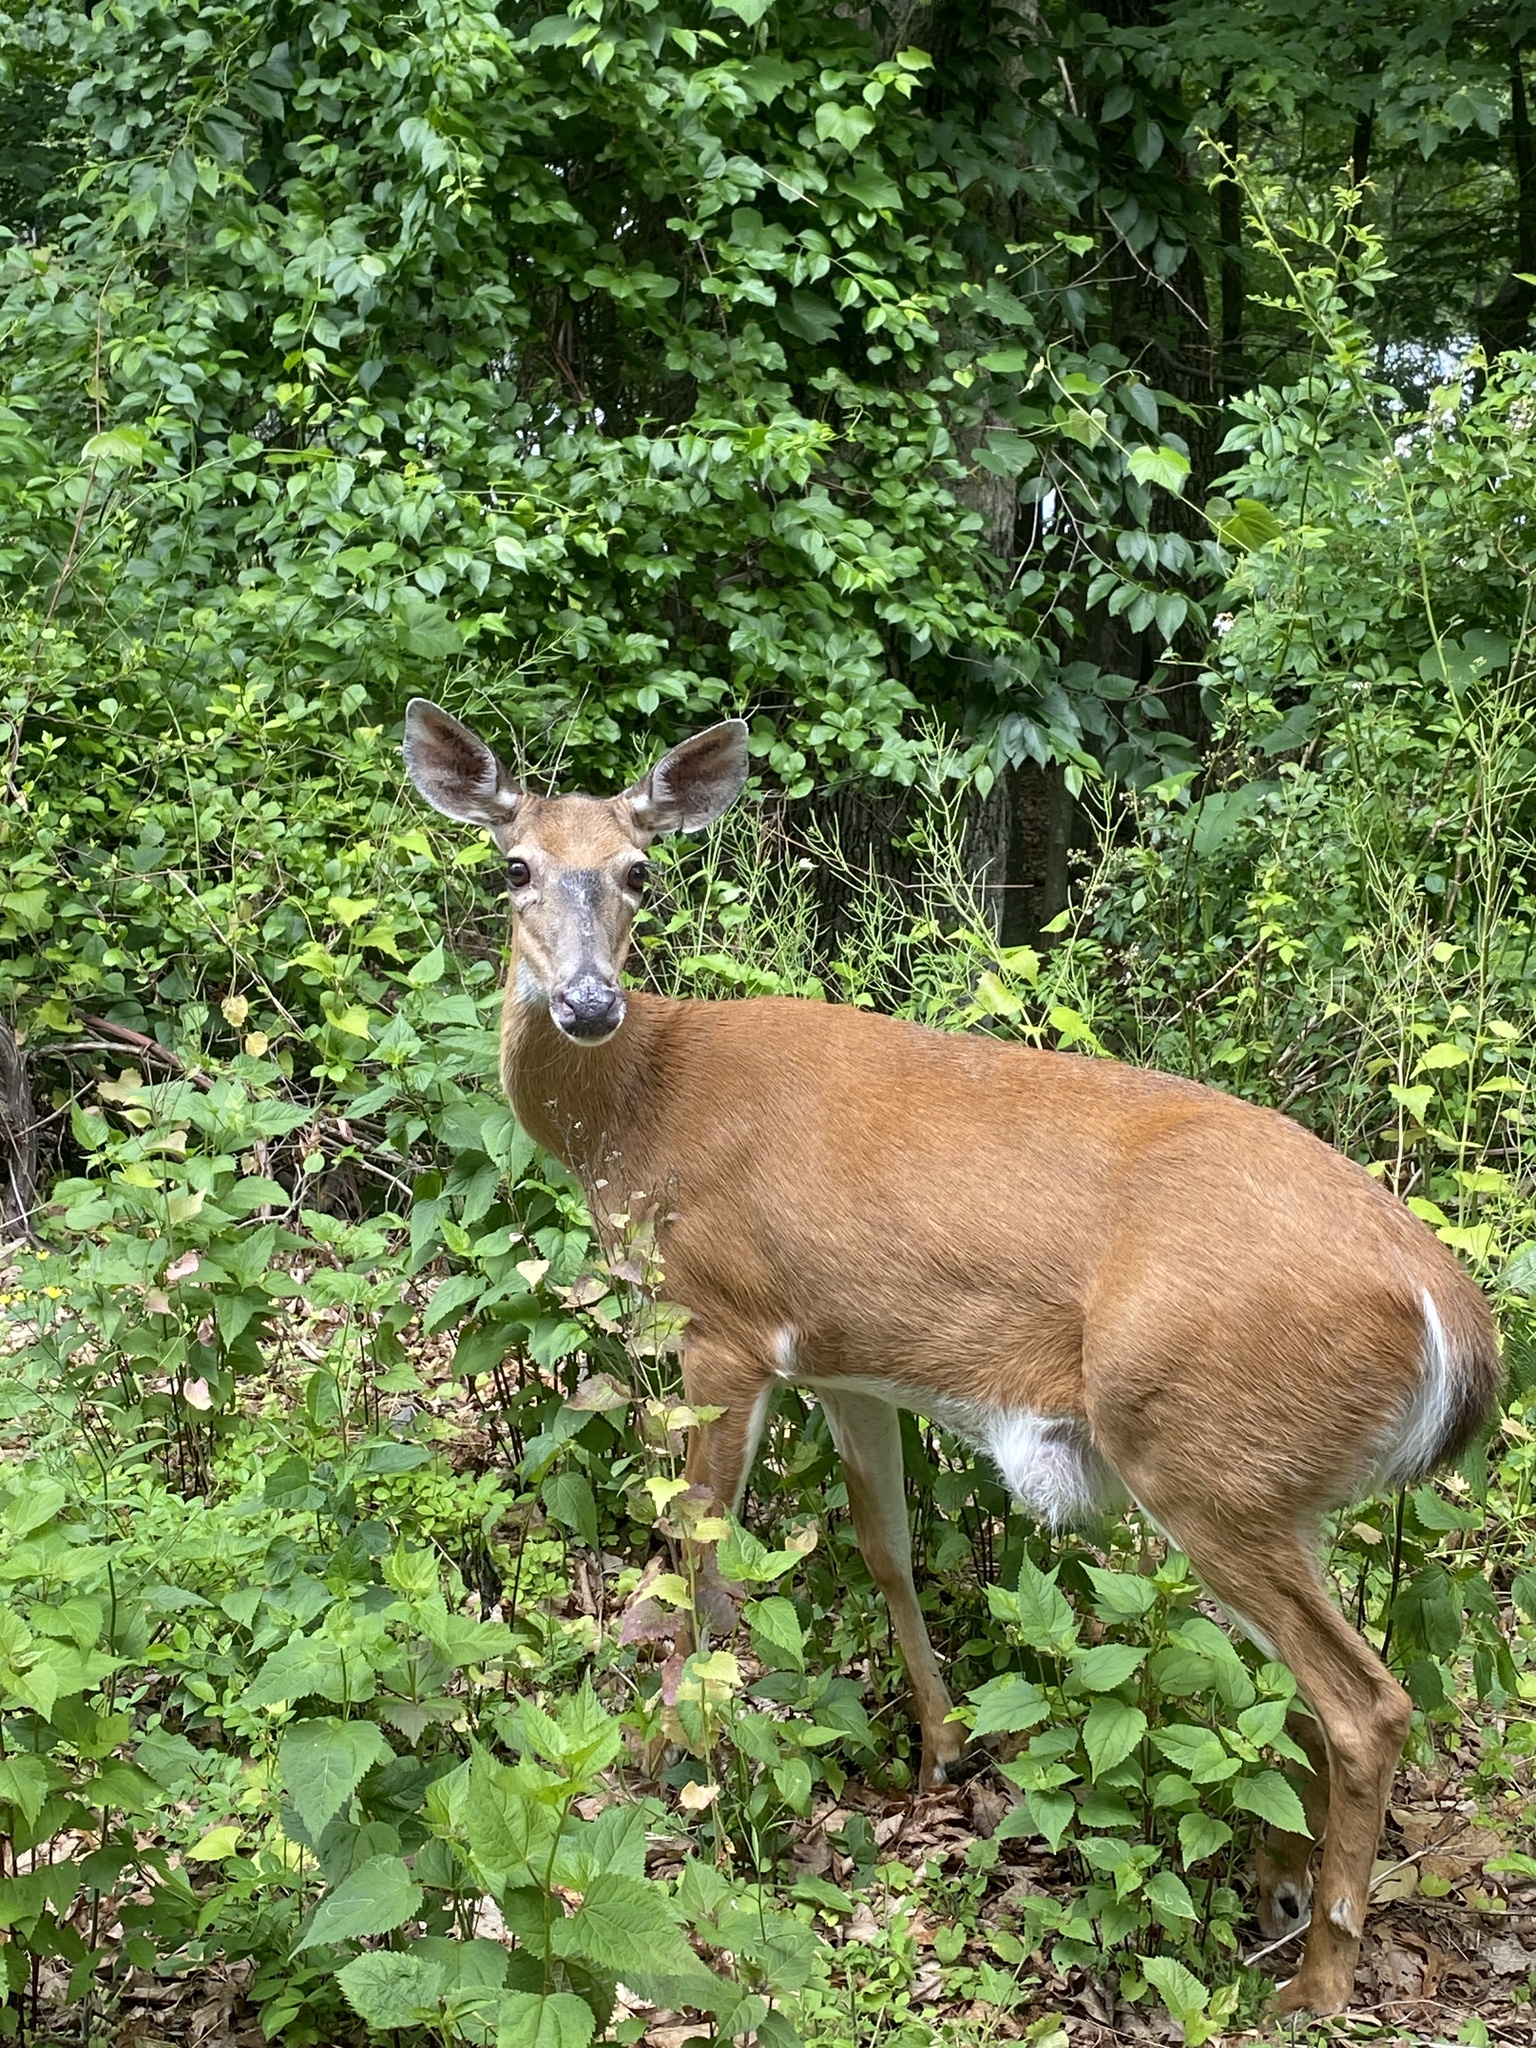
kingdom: Animalia
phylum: Chordata
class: Mammalia
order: Artiodactyla
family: Cervidae
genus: Odocoileus
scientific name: Odocoileus virginianus
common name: White-tailed deer
